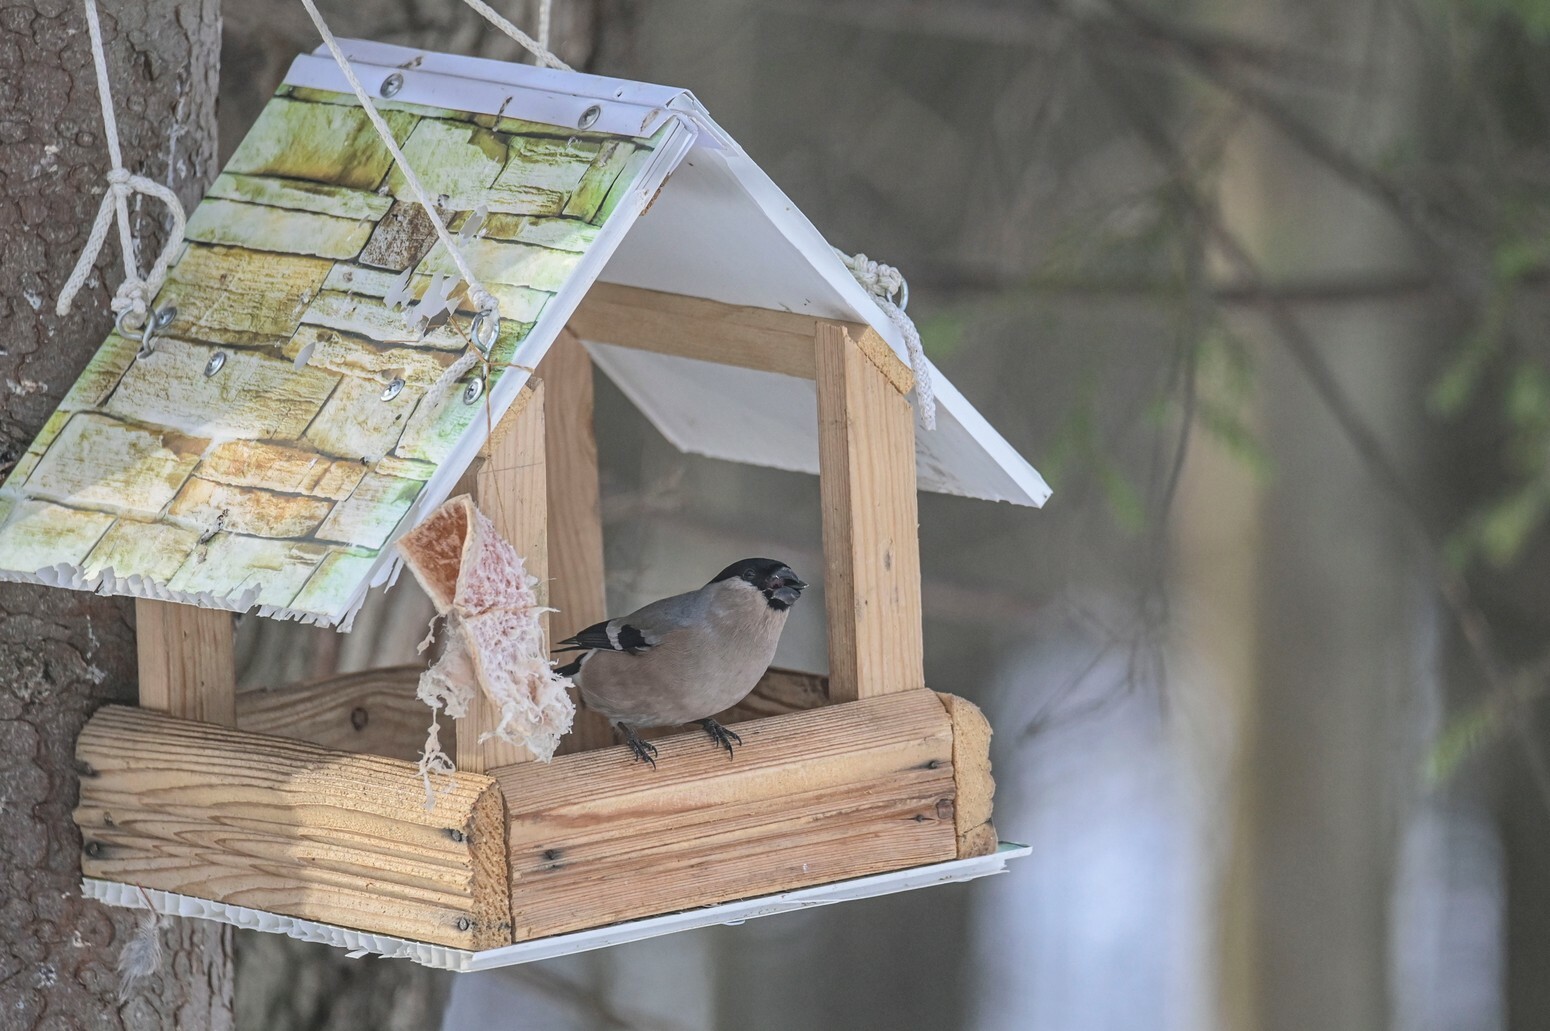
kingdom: Animalia
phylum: Chordata
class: Aves
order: Passeriformes
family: Fringillidae
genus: Pyrrhula
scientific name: Pyrrhula pyrrhula
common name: Eurasian bullfinch
